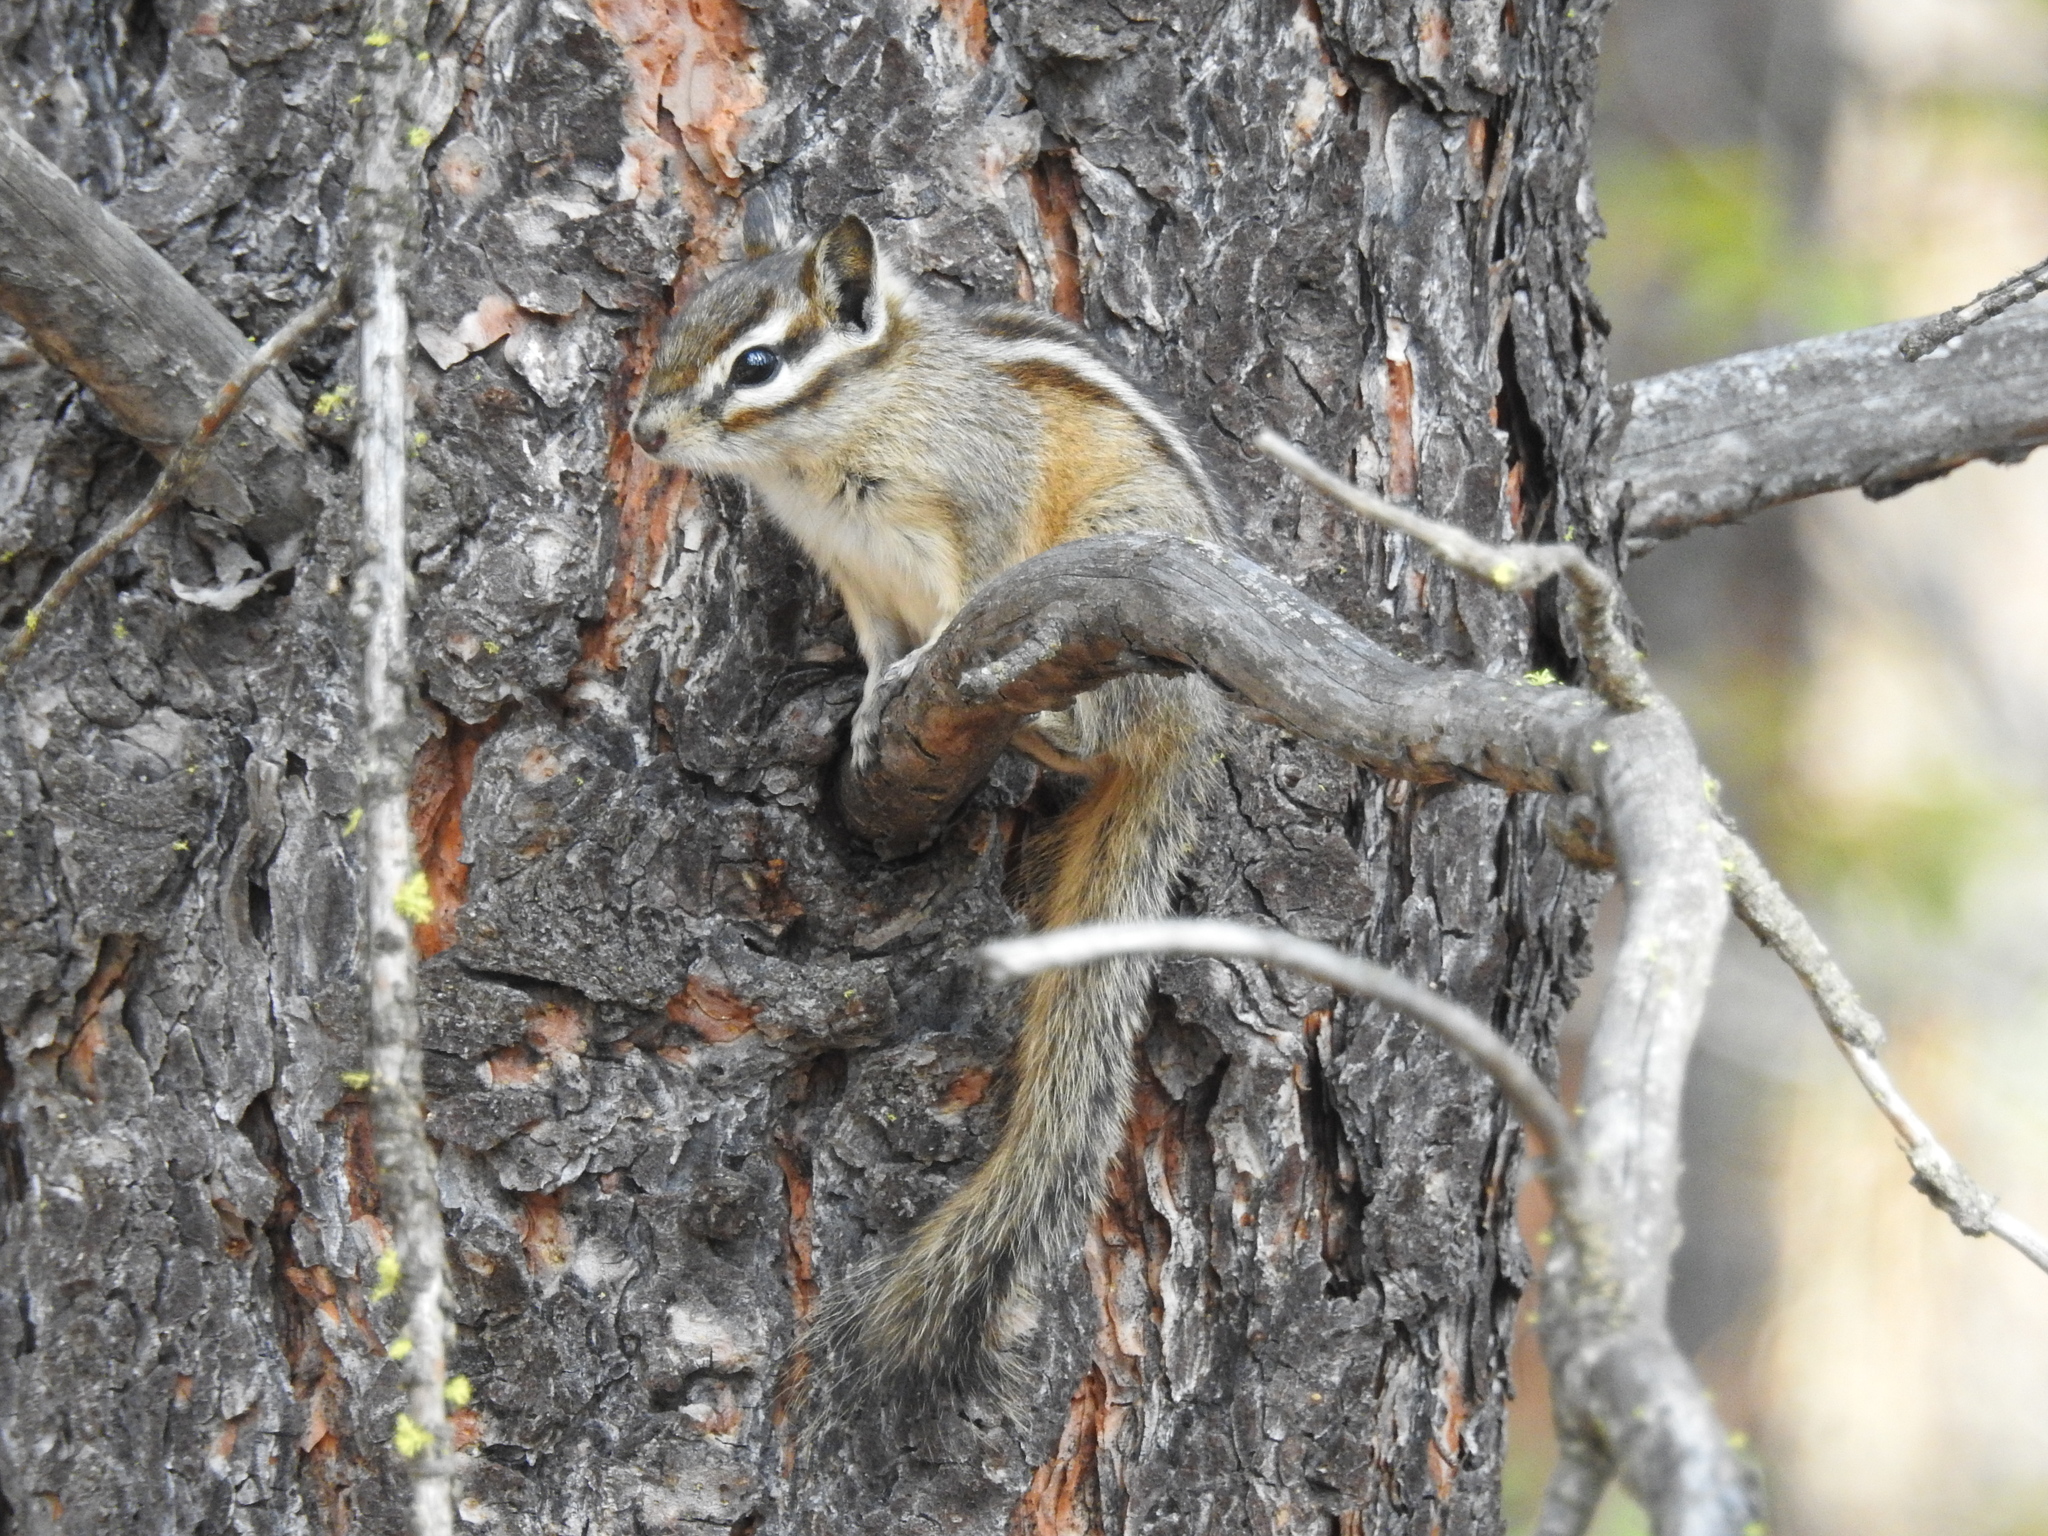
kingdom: Animalia
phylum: Chordata
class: Mammalia
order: Rodentia
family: Sciuridae
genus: Tamias
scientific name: Tamias amoenus
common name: Yellow-pine chipmunk
